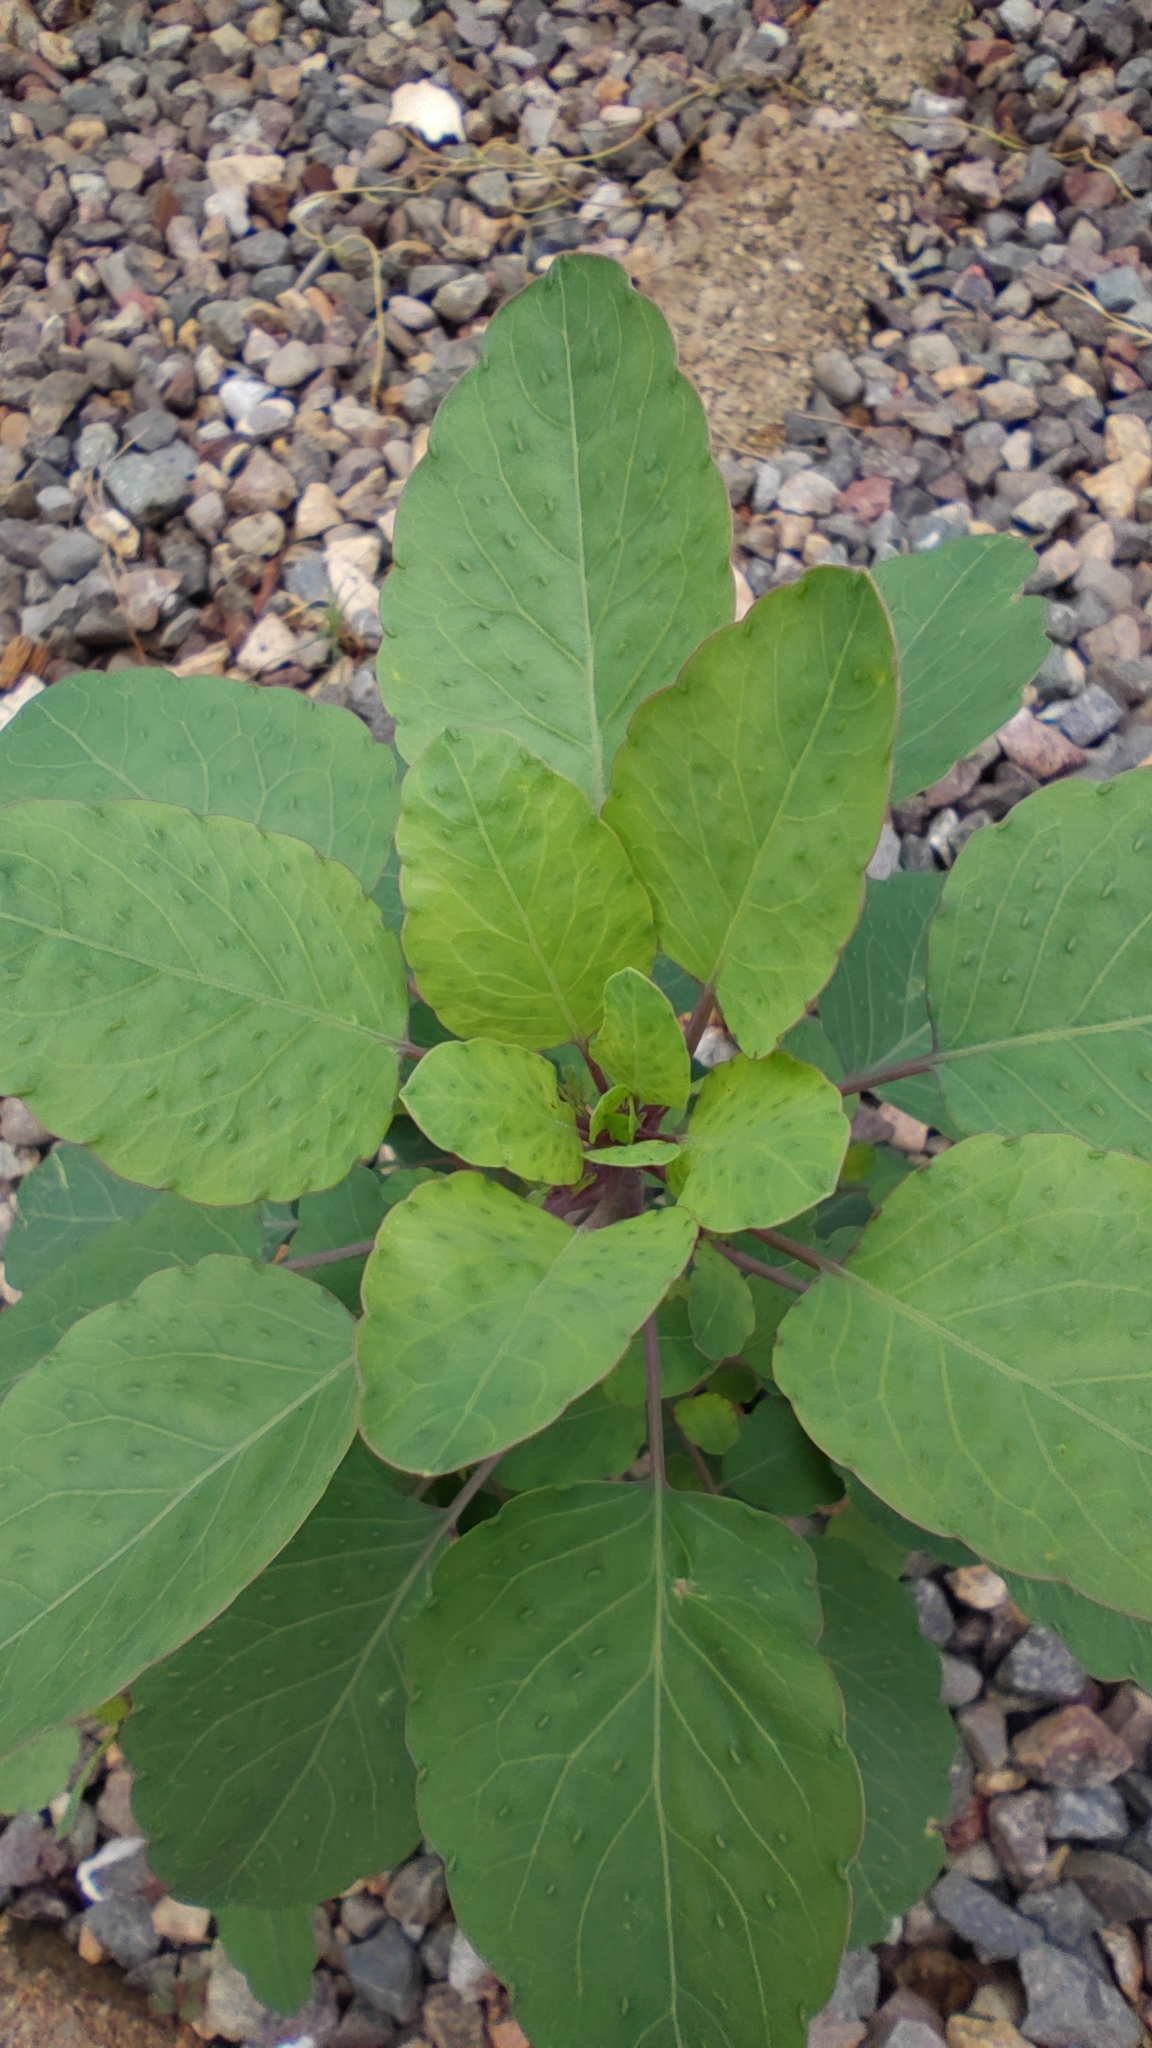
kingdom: Plantae
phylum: Tracheophyta
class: Magnoliopsida
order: Asterales
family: Asteraceae
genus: Porophyllum
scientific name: Porophyllum ruderale
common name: Yerba porosa
